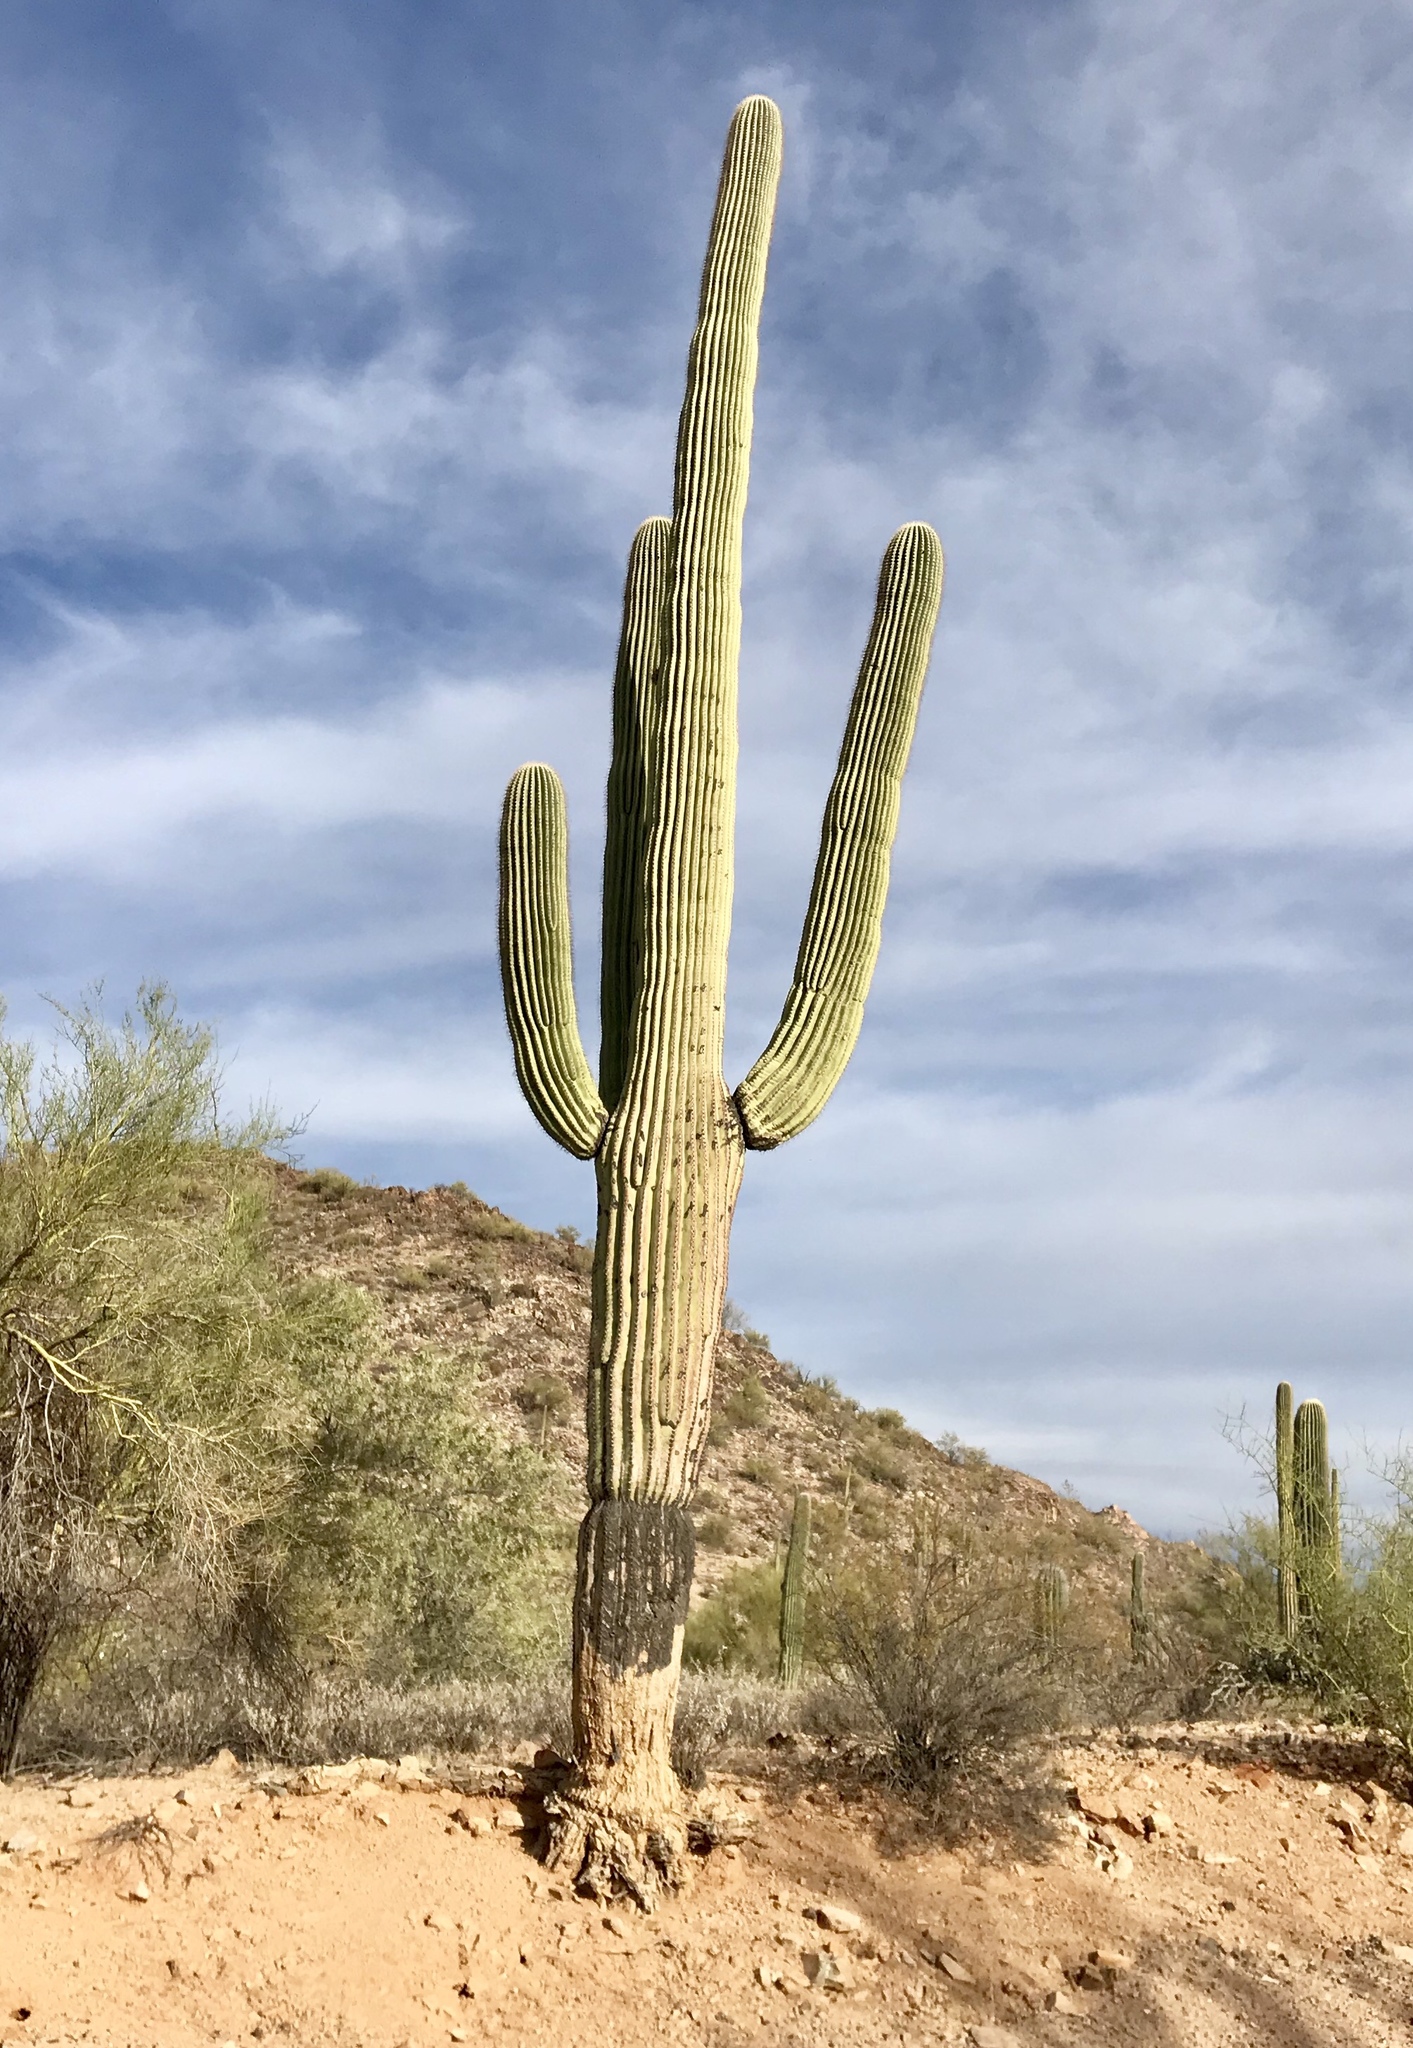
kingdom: Plantae
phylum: Tracheophyta
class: Magnoliopsida
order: Caryophyllales
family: Cactaceae
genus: Carnegiea
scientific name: Carnegiea gigantea
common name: Saguaro
